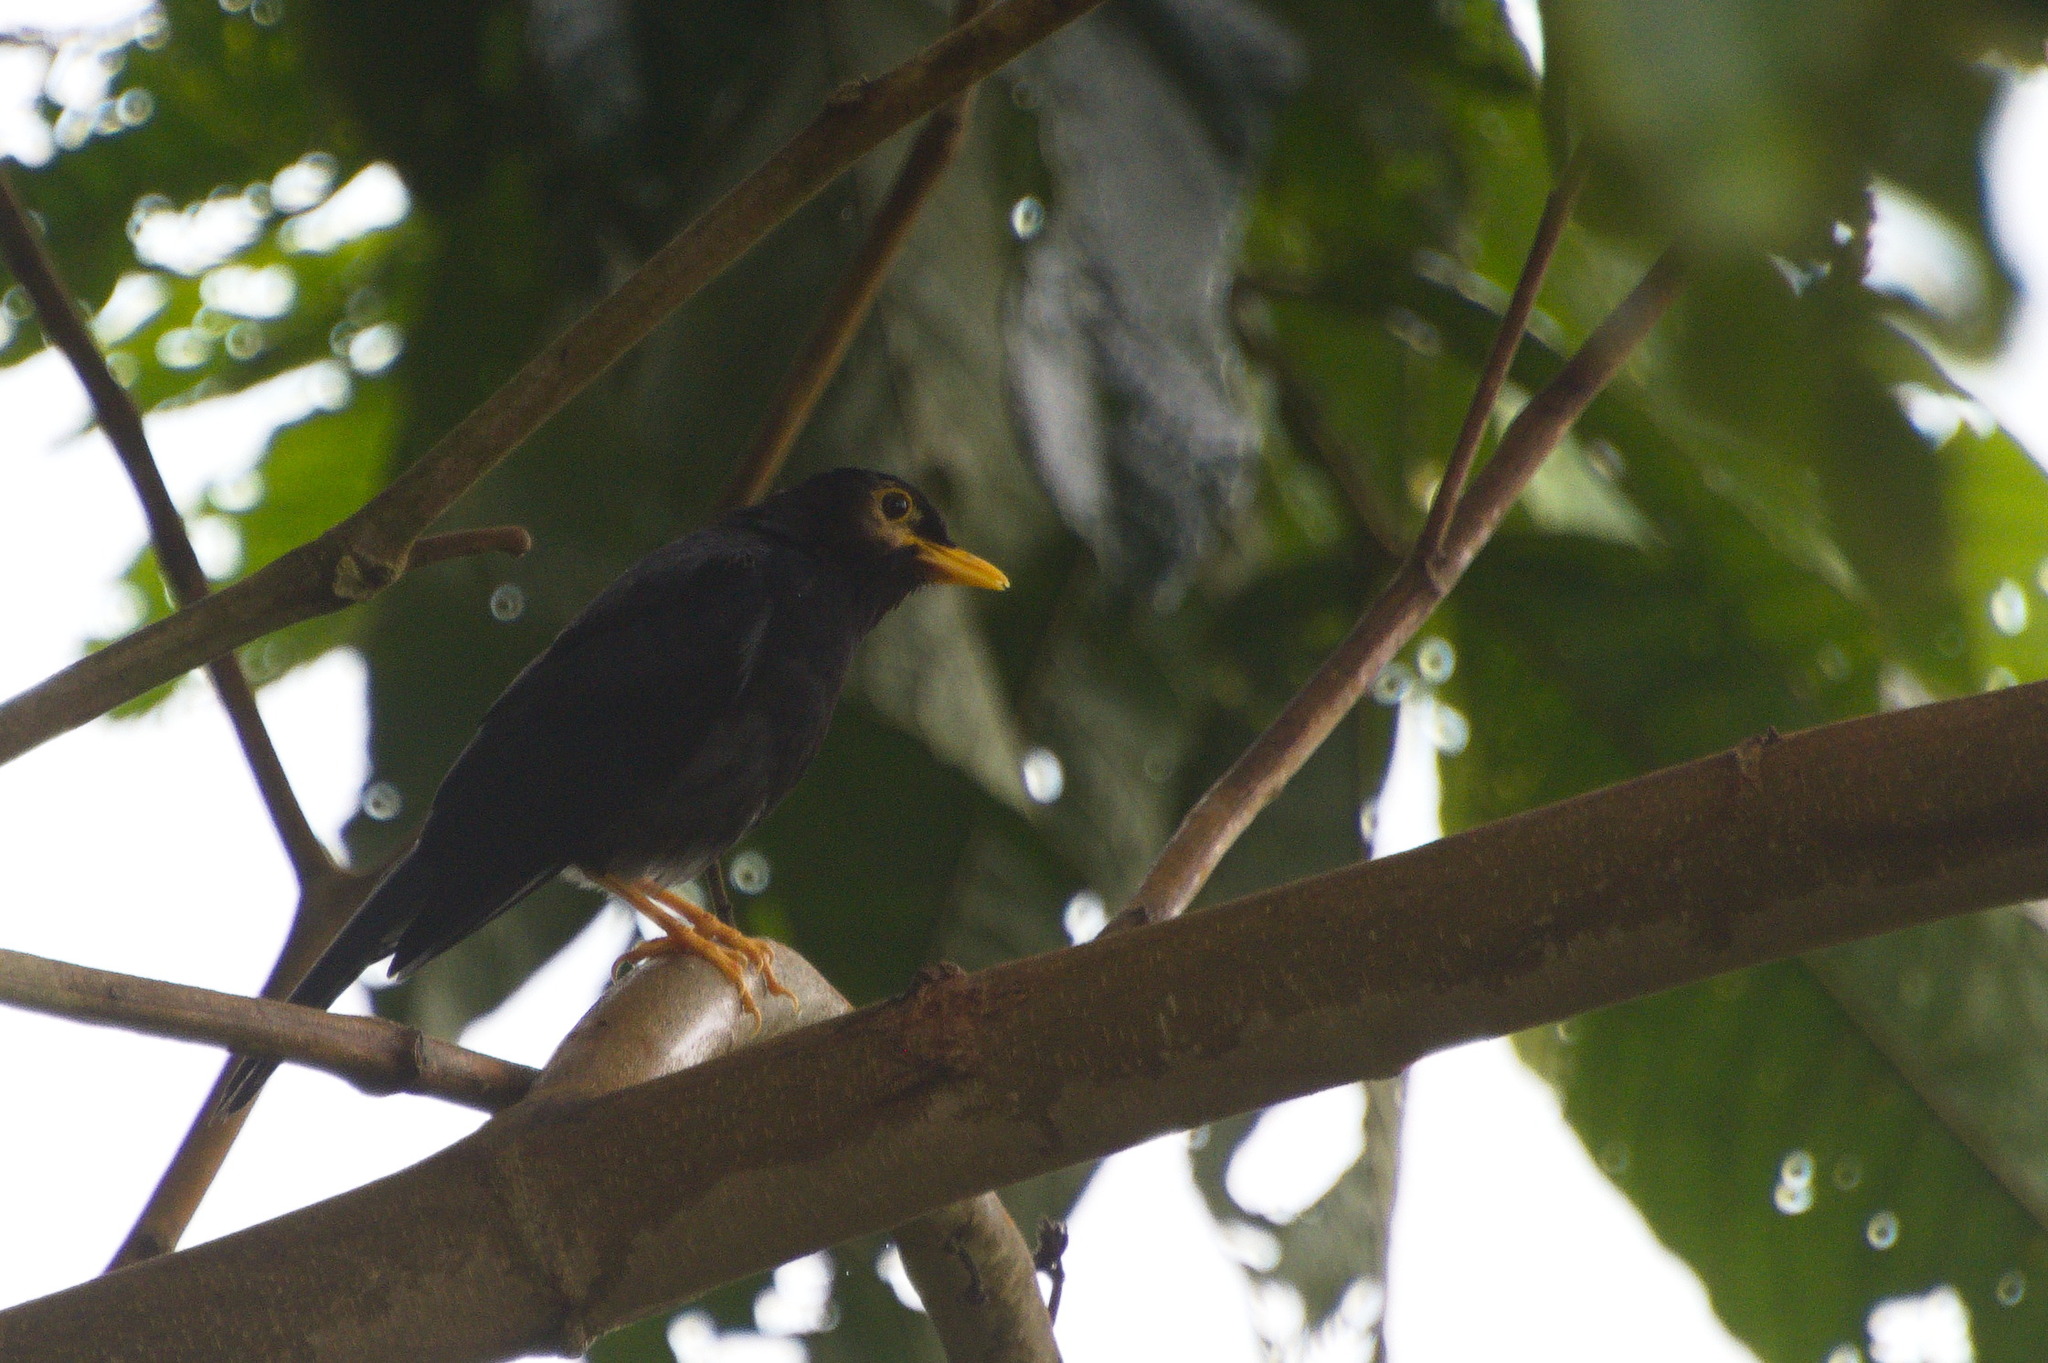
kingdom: Animalia
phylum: Chordata
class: Aves
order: Passeriformes
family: Turdidae
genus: Turdus
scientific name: Turdus flavipes
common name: Yellow-legged thrush
